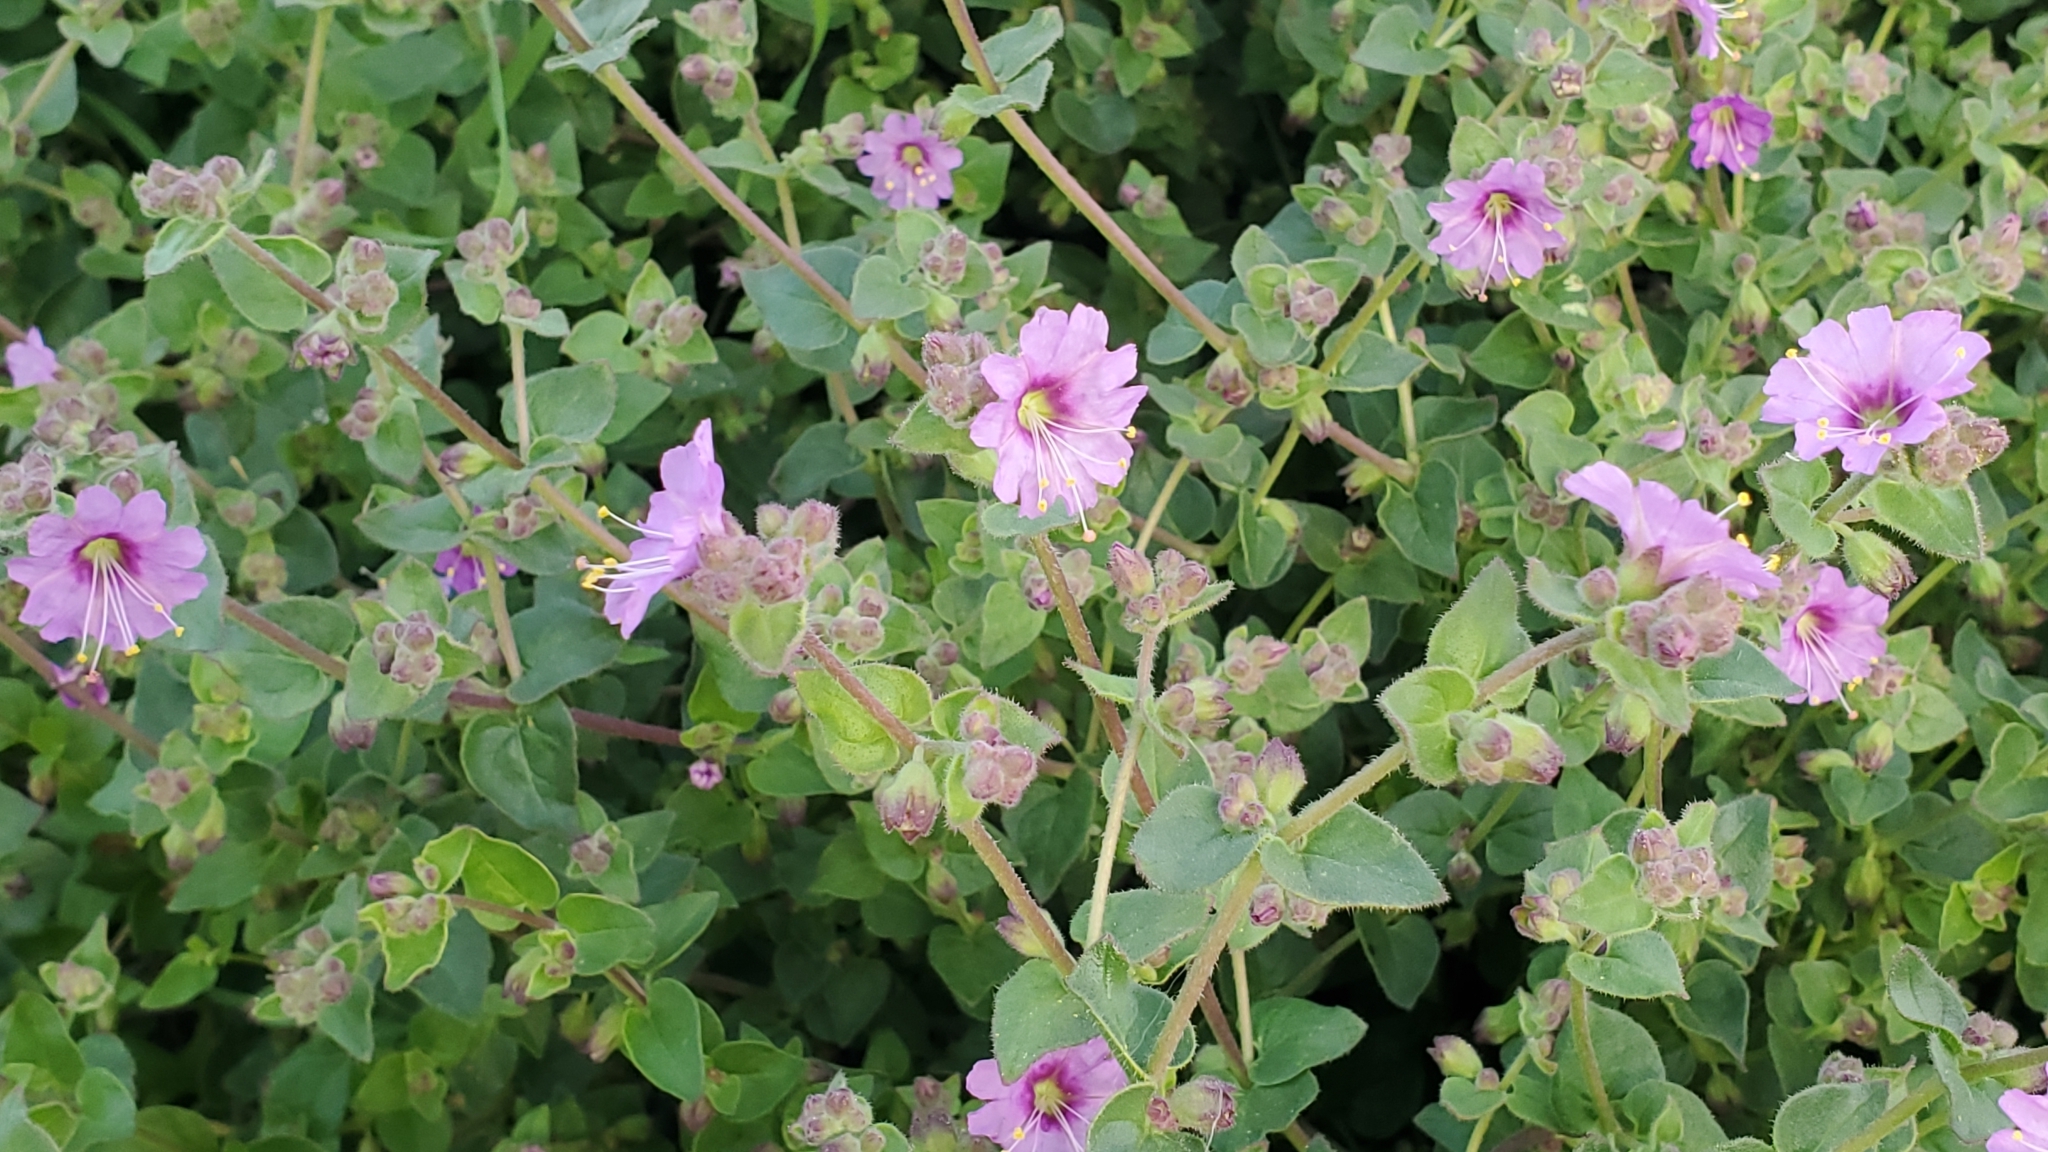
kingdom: Plantae
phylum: Tracheophyta
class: Magnoliopsida
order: Caryophyllales
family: Nyctaginaceae
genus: Mirabilis
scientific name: Mirabilis laevis
